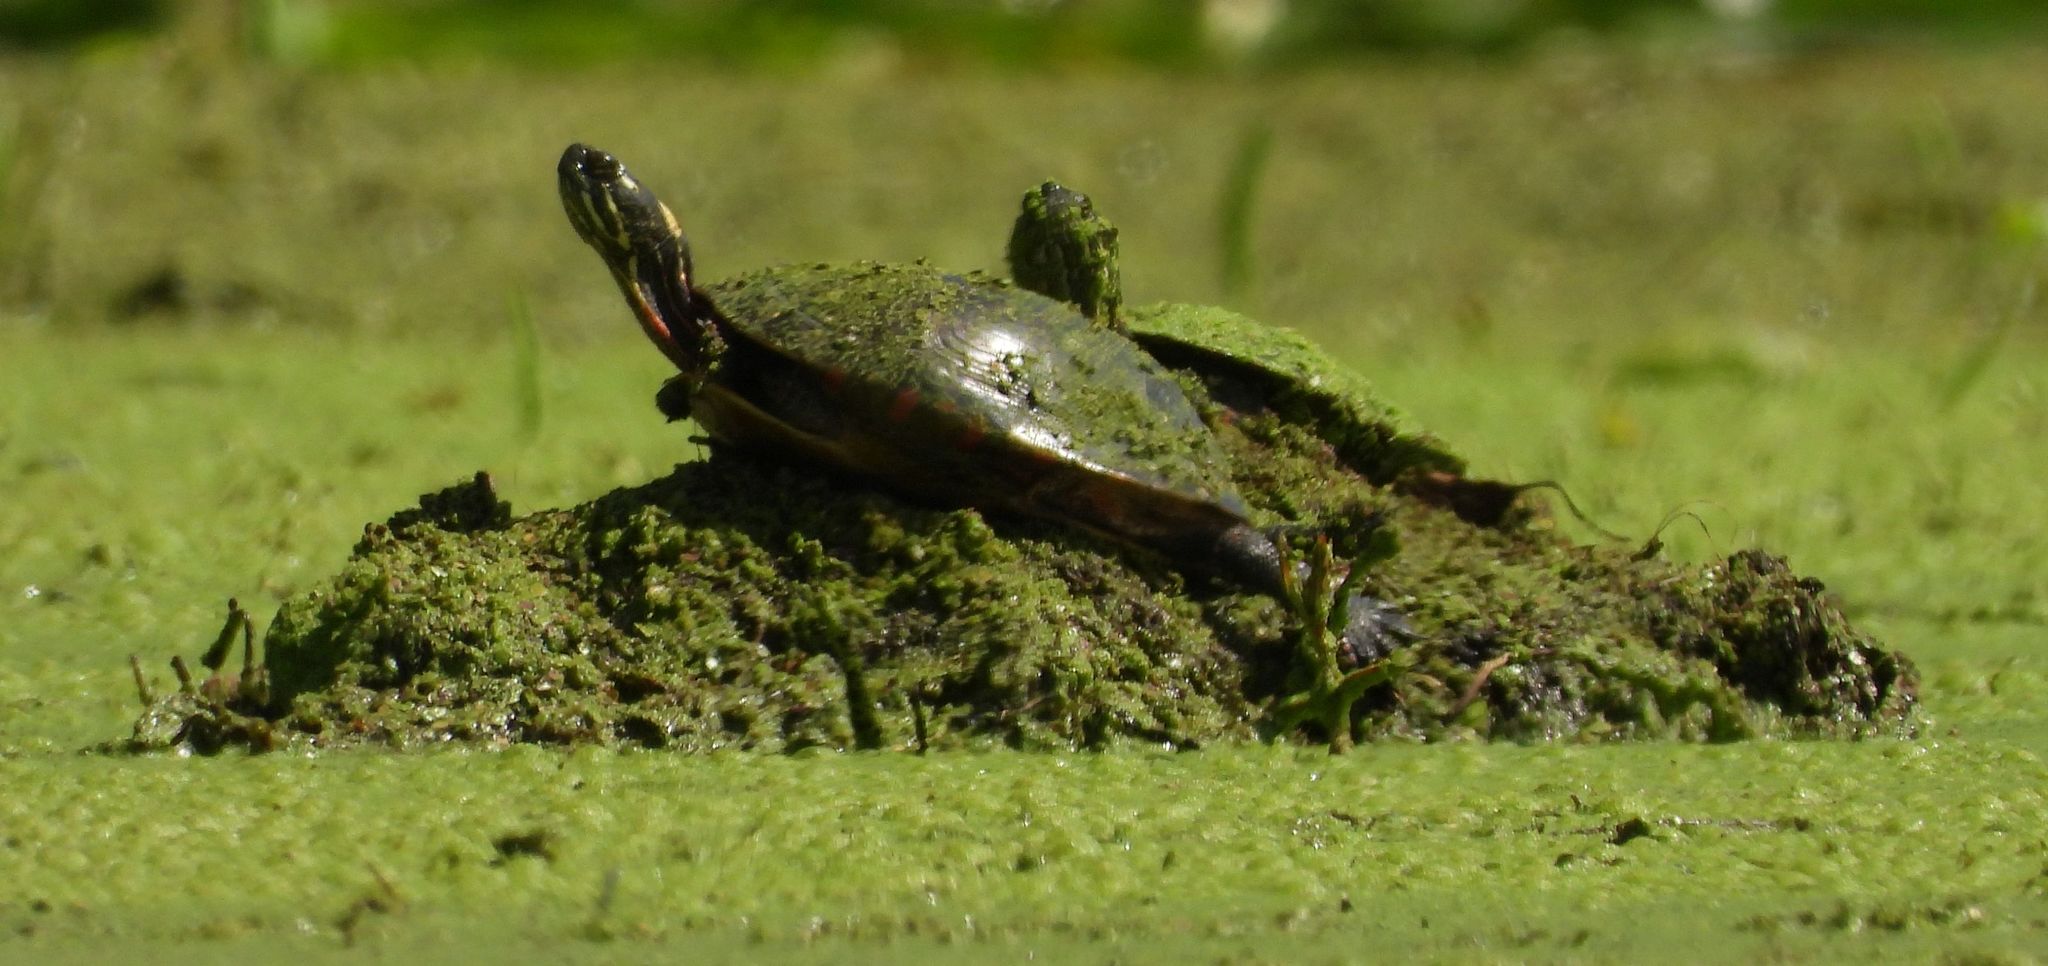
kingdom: Animalia
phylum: Chordata
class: Testudines
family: Emydidae
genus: Chrysemys
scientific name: Chrysemys picta
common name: Painted turtle
